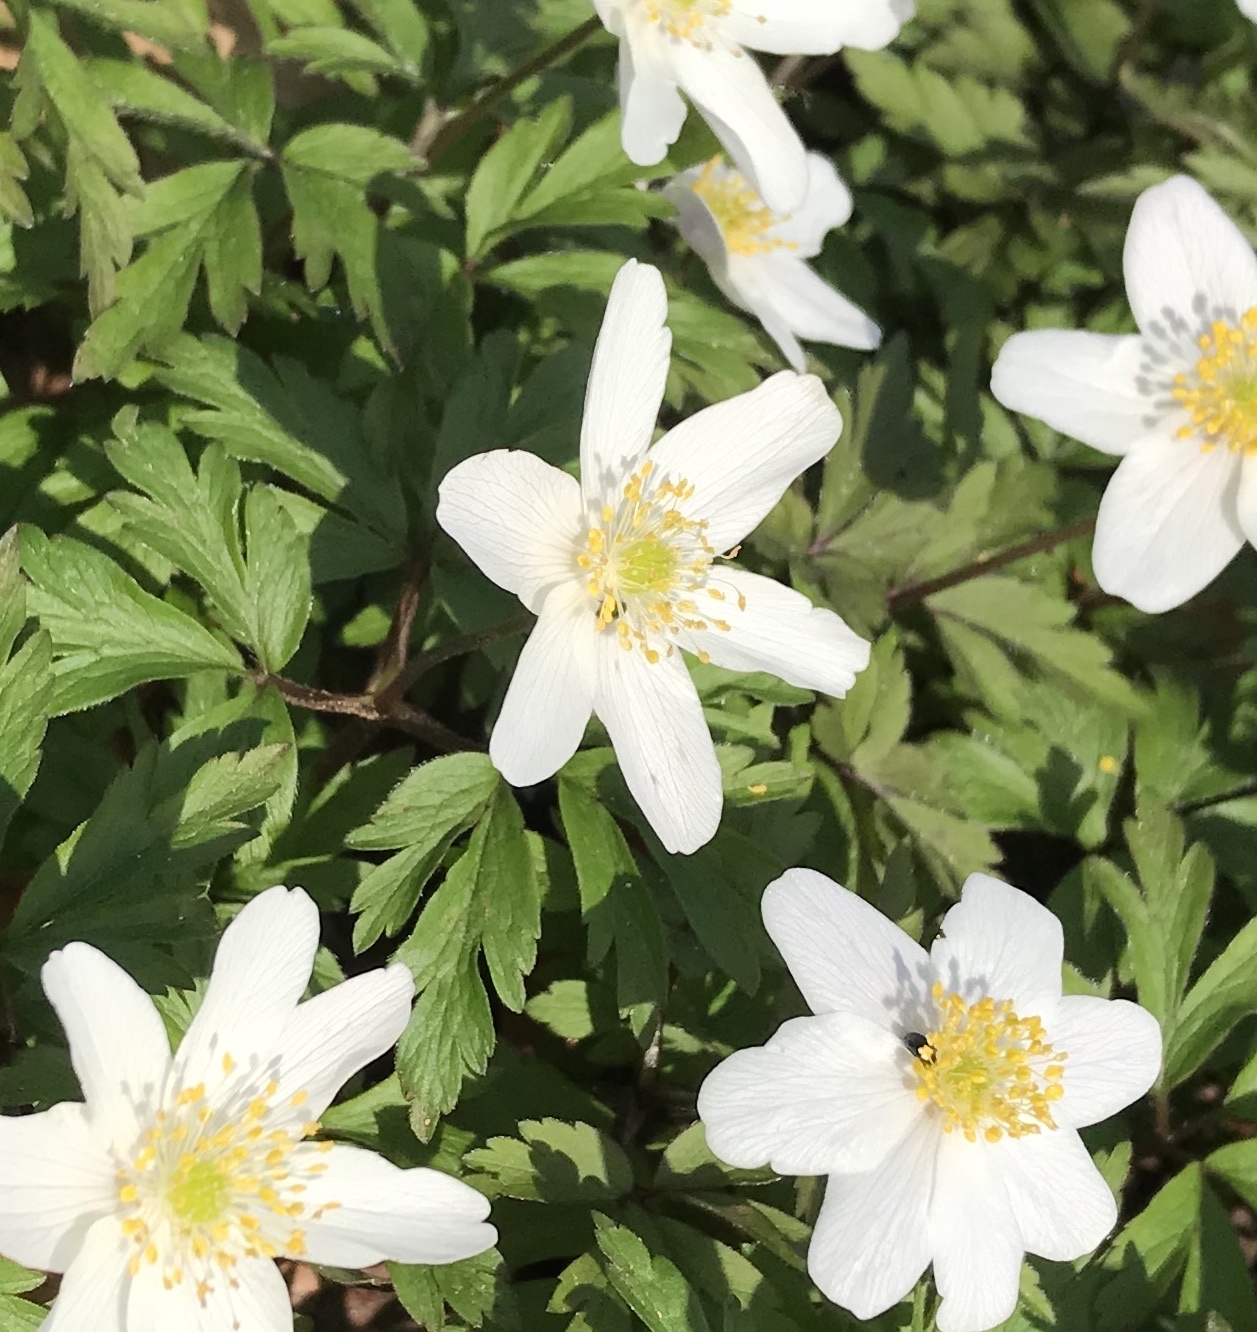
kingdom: Plantae
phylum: Tracheophyta
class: Magnoliopsida
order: Ranunculales
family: Ranunculaceae
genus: Anemone
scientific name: Anemone nemorosa
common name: Wood anemone
